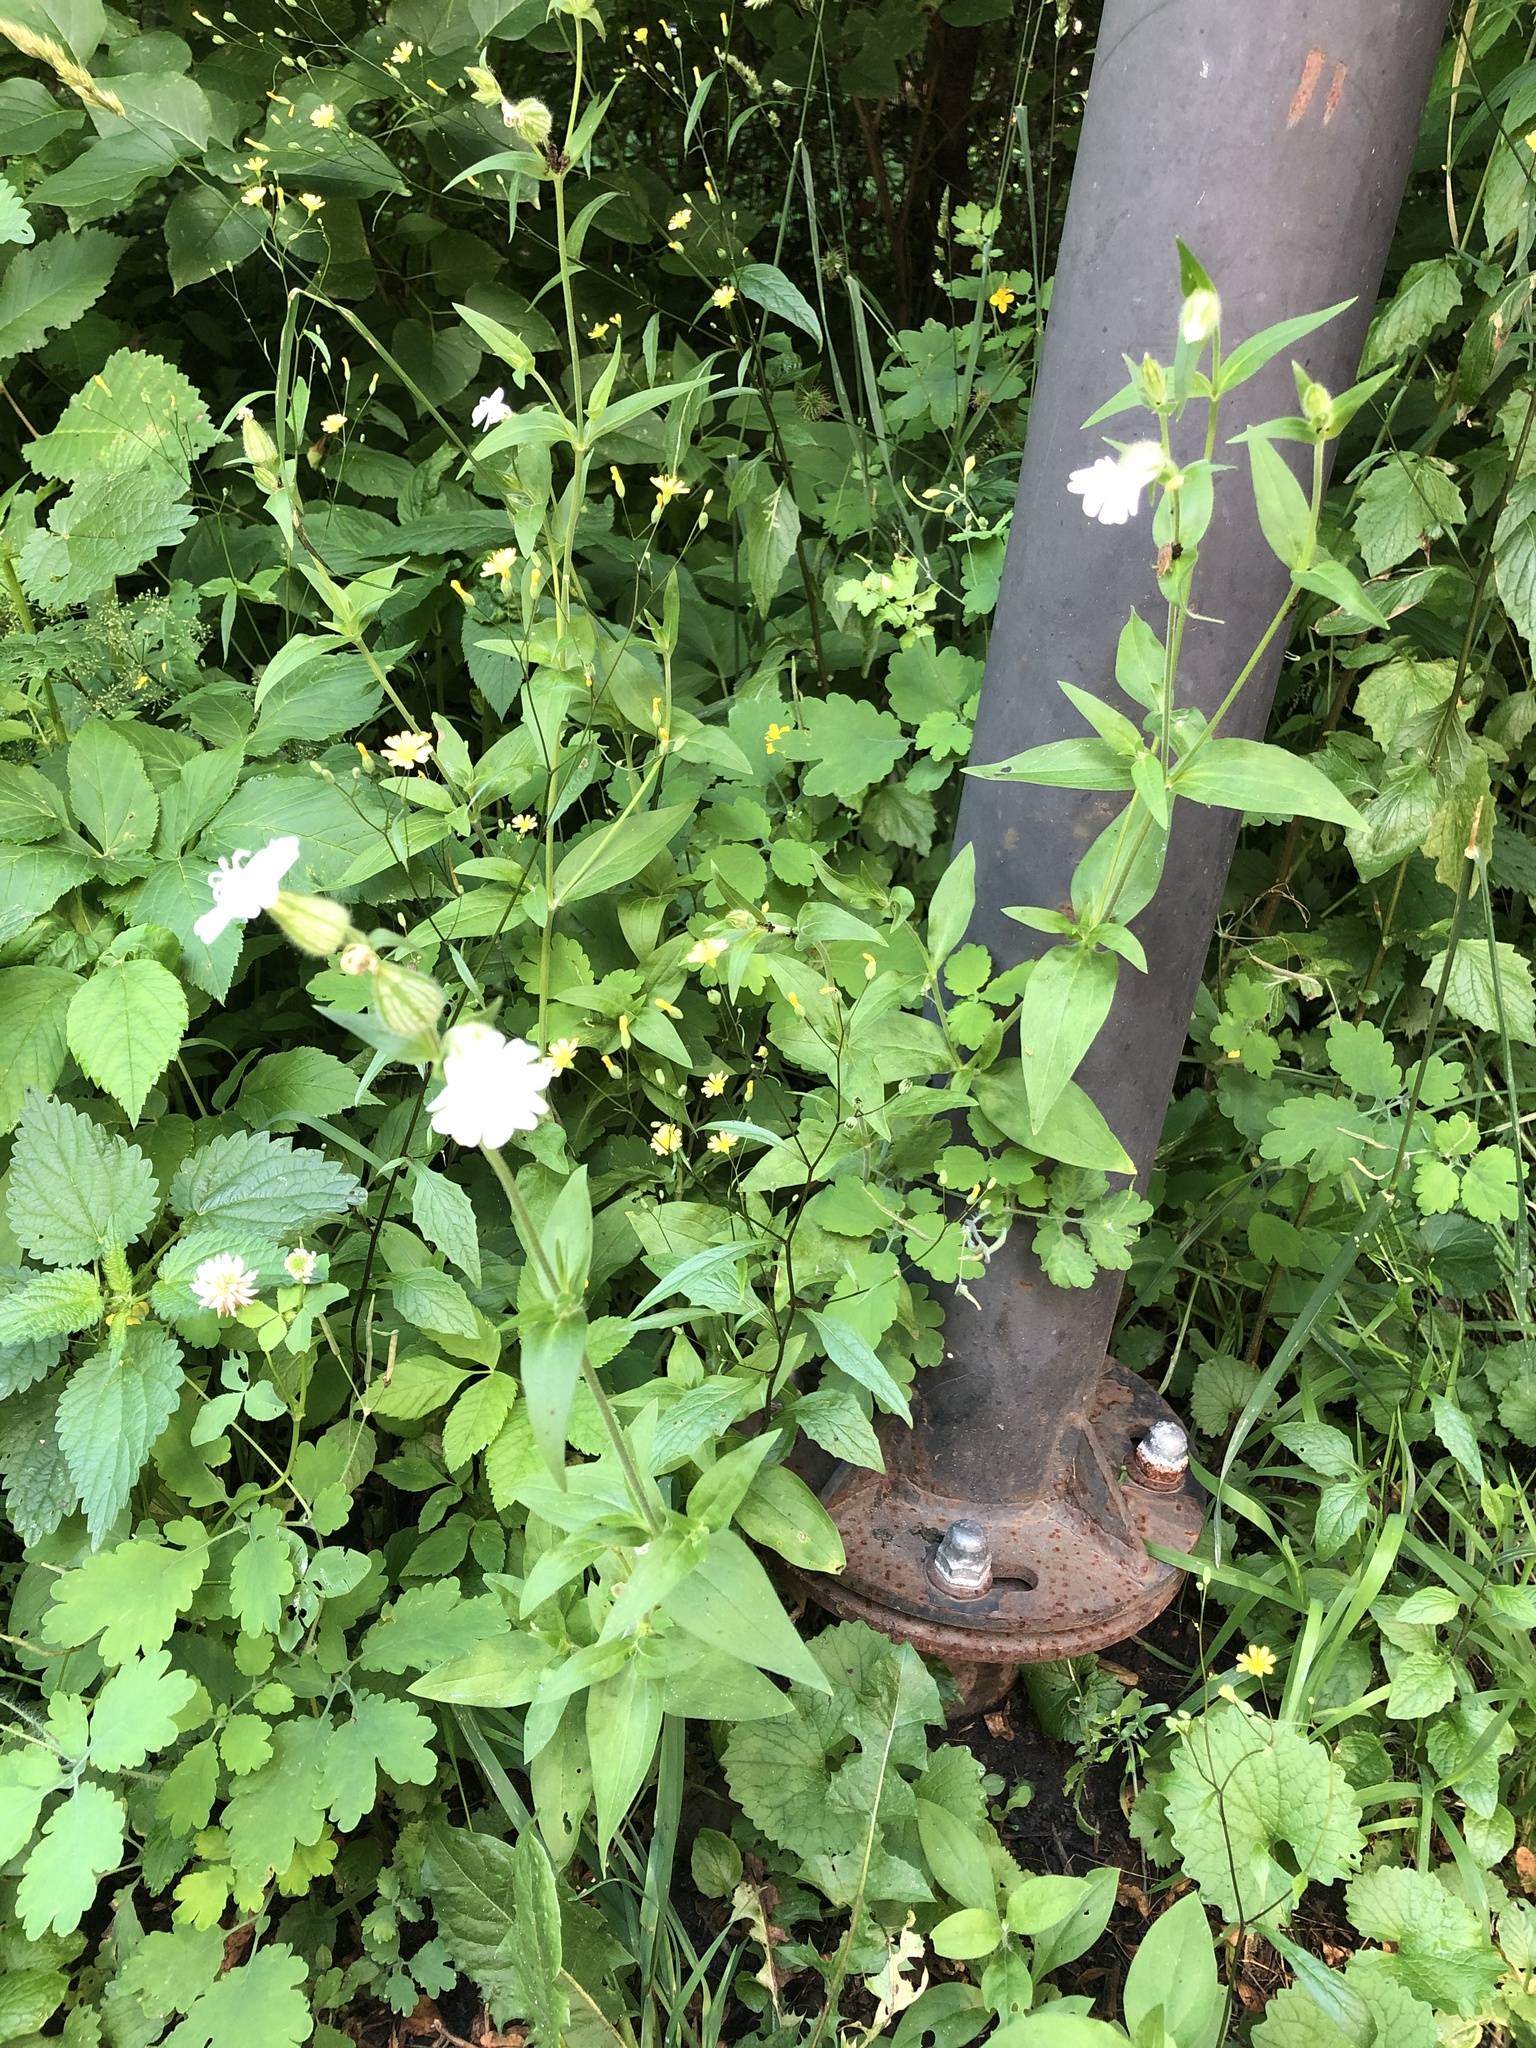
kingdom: Plantae
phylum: Tracheophyta
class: Magnoliopsida
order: Caryophyllales
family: Caryophyllaceae
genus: Silene
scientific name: Silene latifolia
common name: White campion
